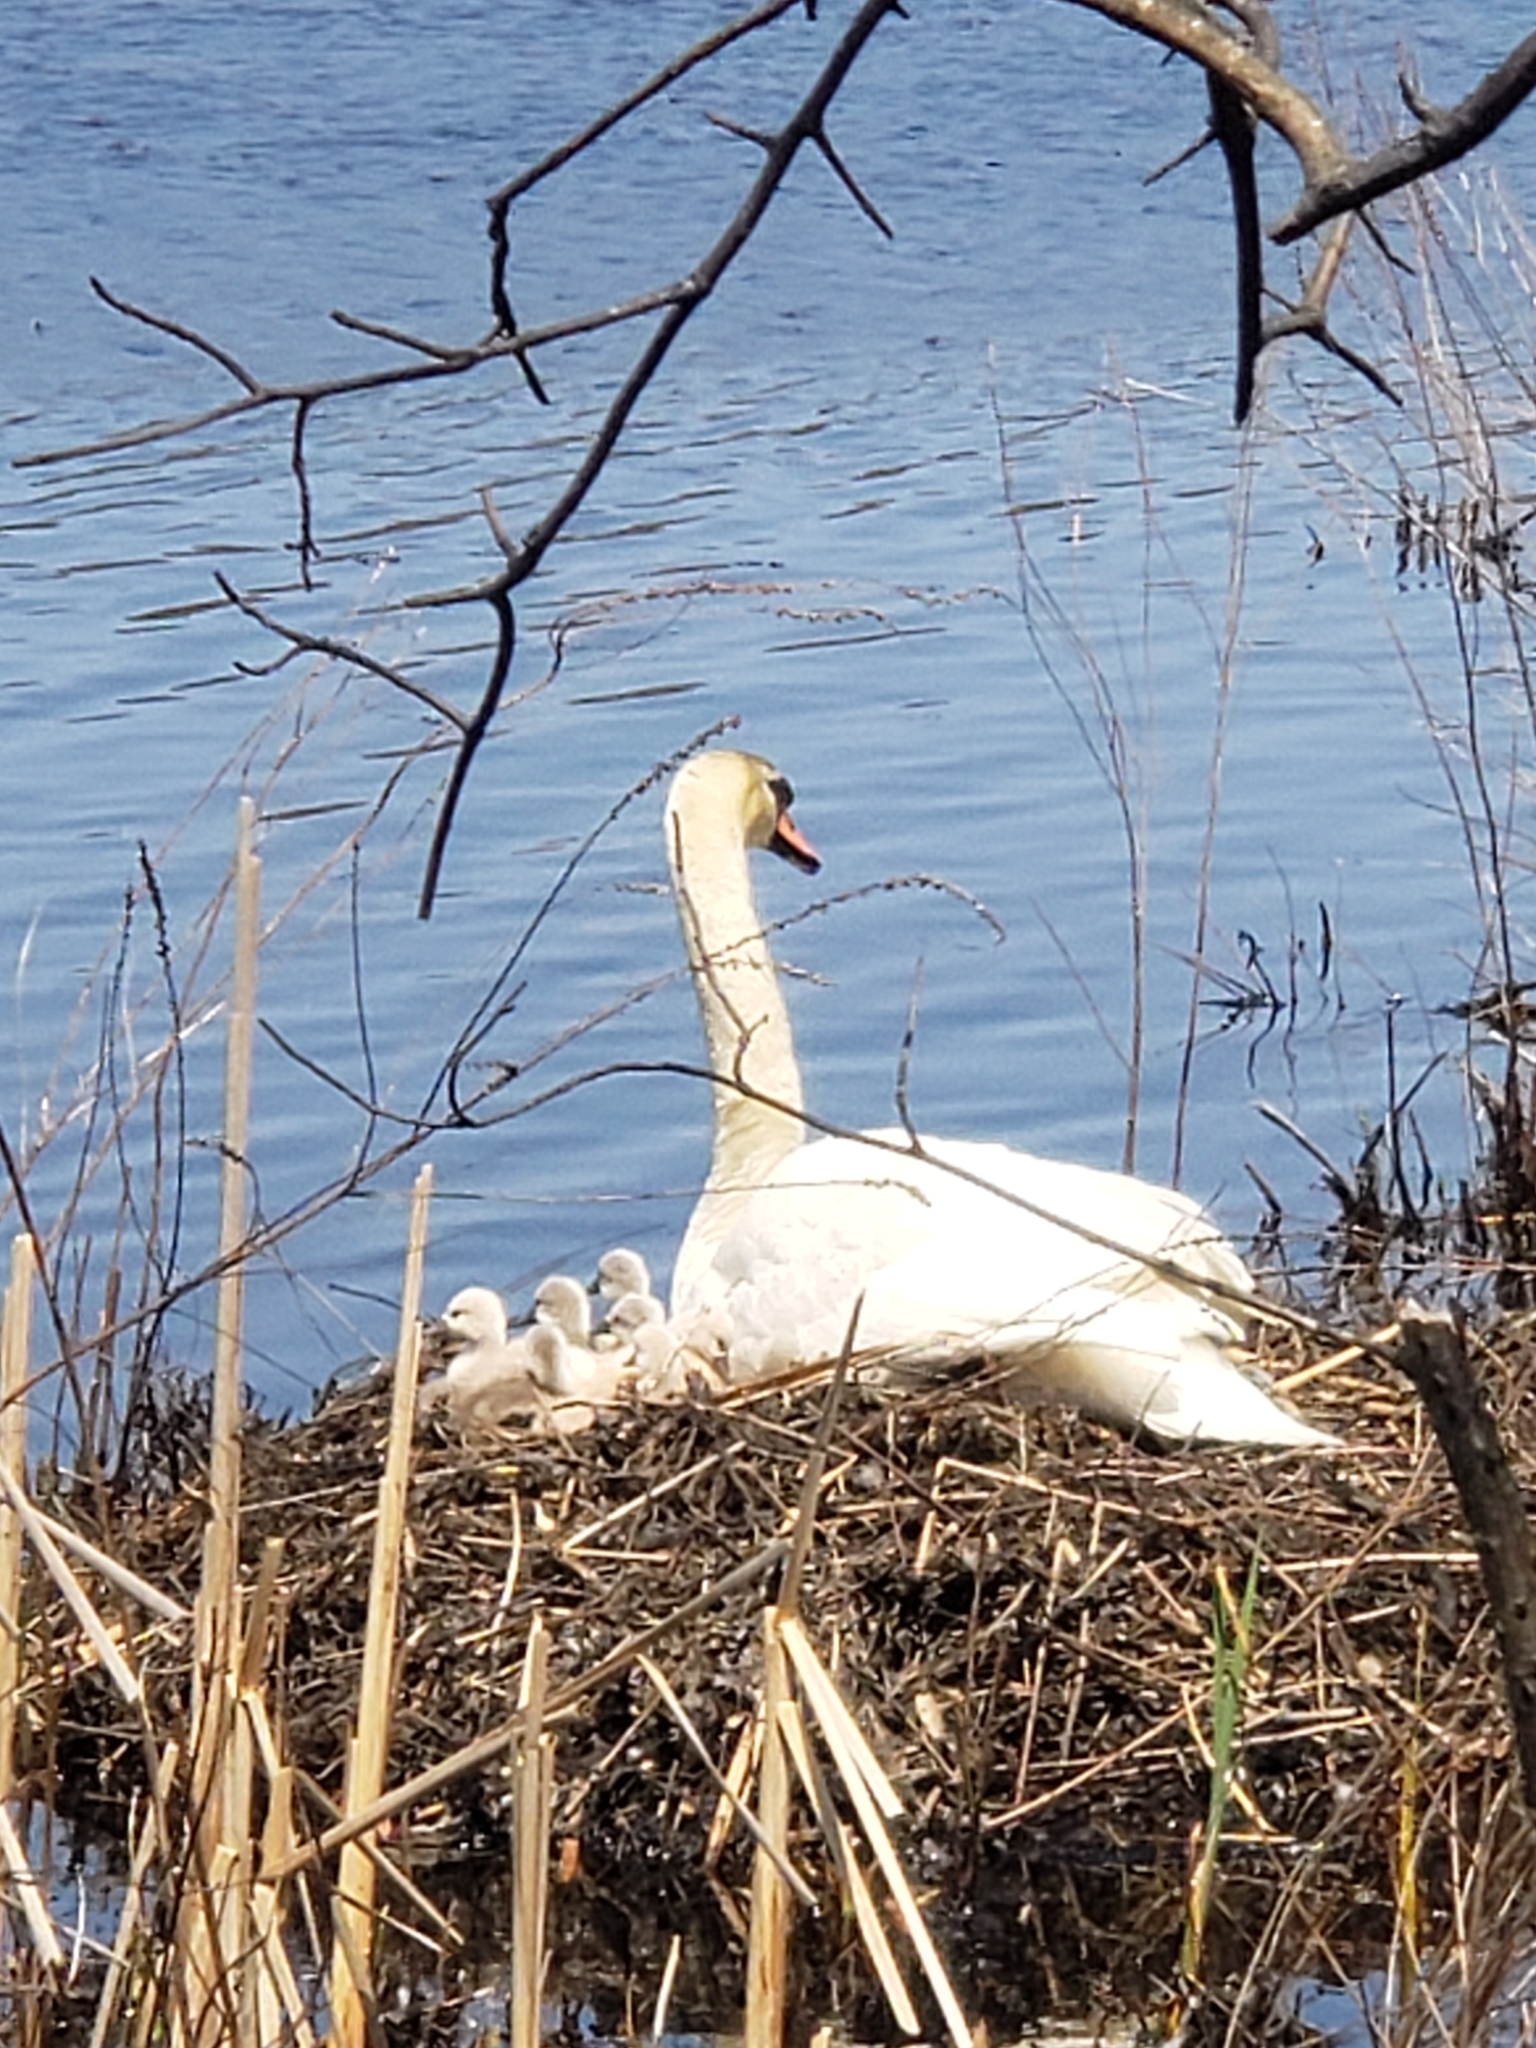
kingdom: Animalia
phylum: Chordata
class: Aves
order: Anseriformes
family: Anatidae
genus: Cygnus
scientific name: Cygnus olor
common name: Mute swan
